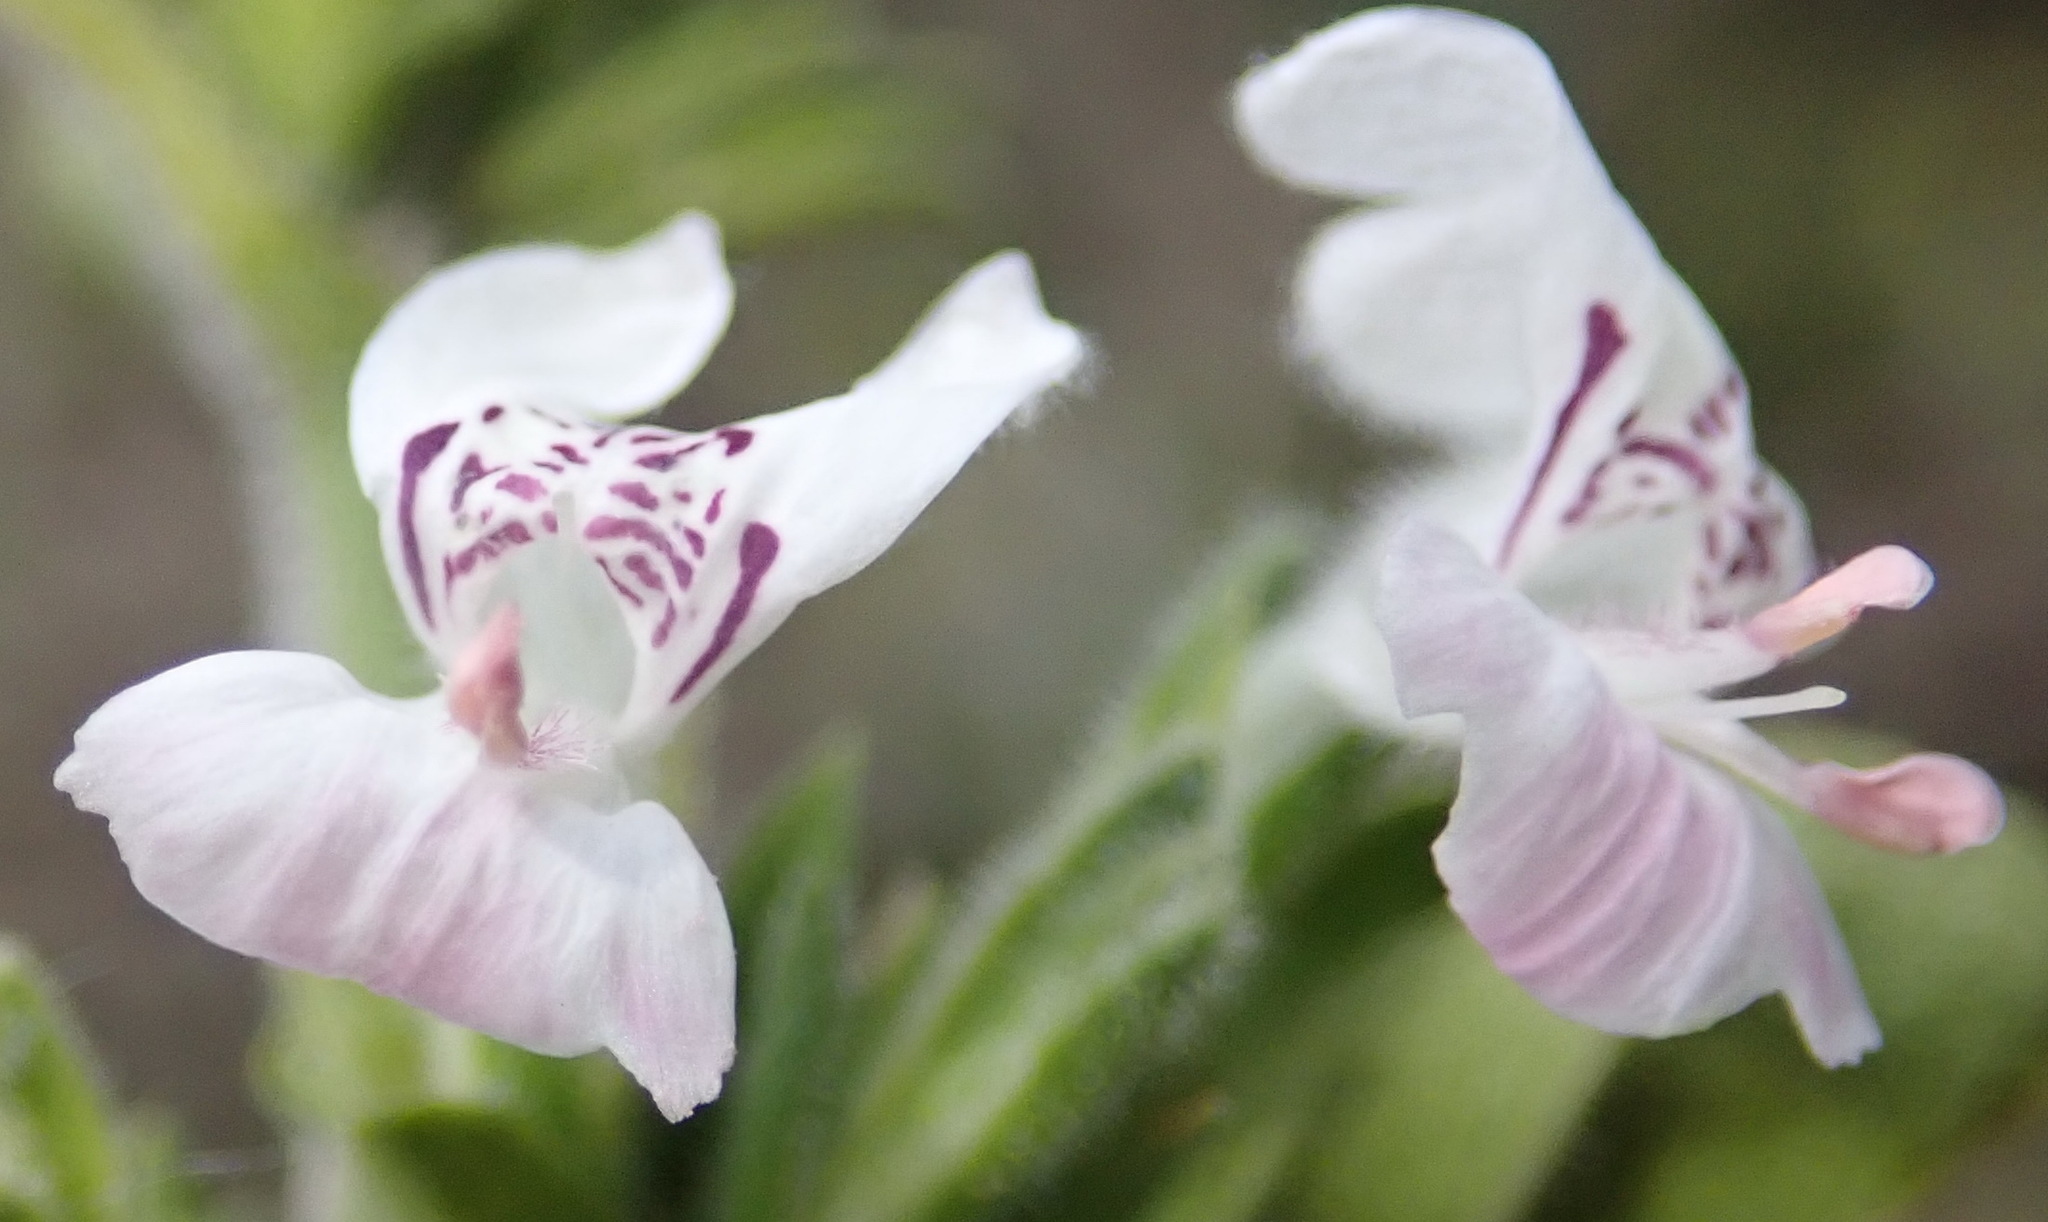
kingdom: Plantae
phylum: Tracheophyta
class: Magnoliopsida
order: Lamiales
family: Acanthaceae
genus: Hypoestes
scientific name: Hypoestes forskaolii
